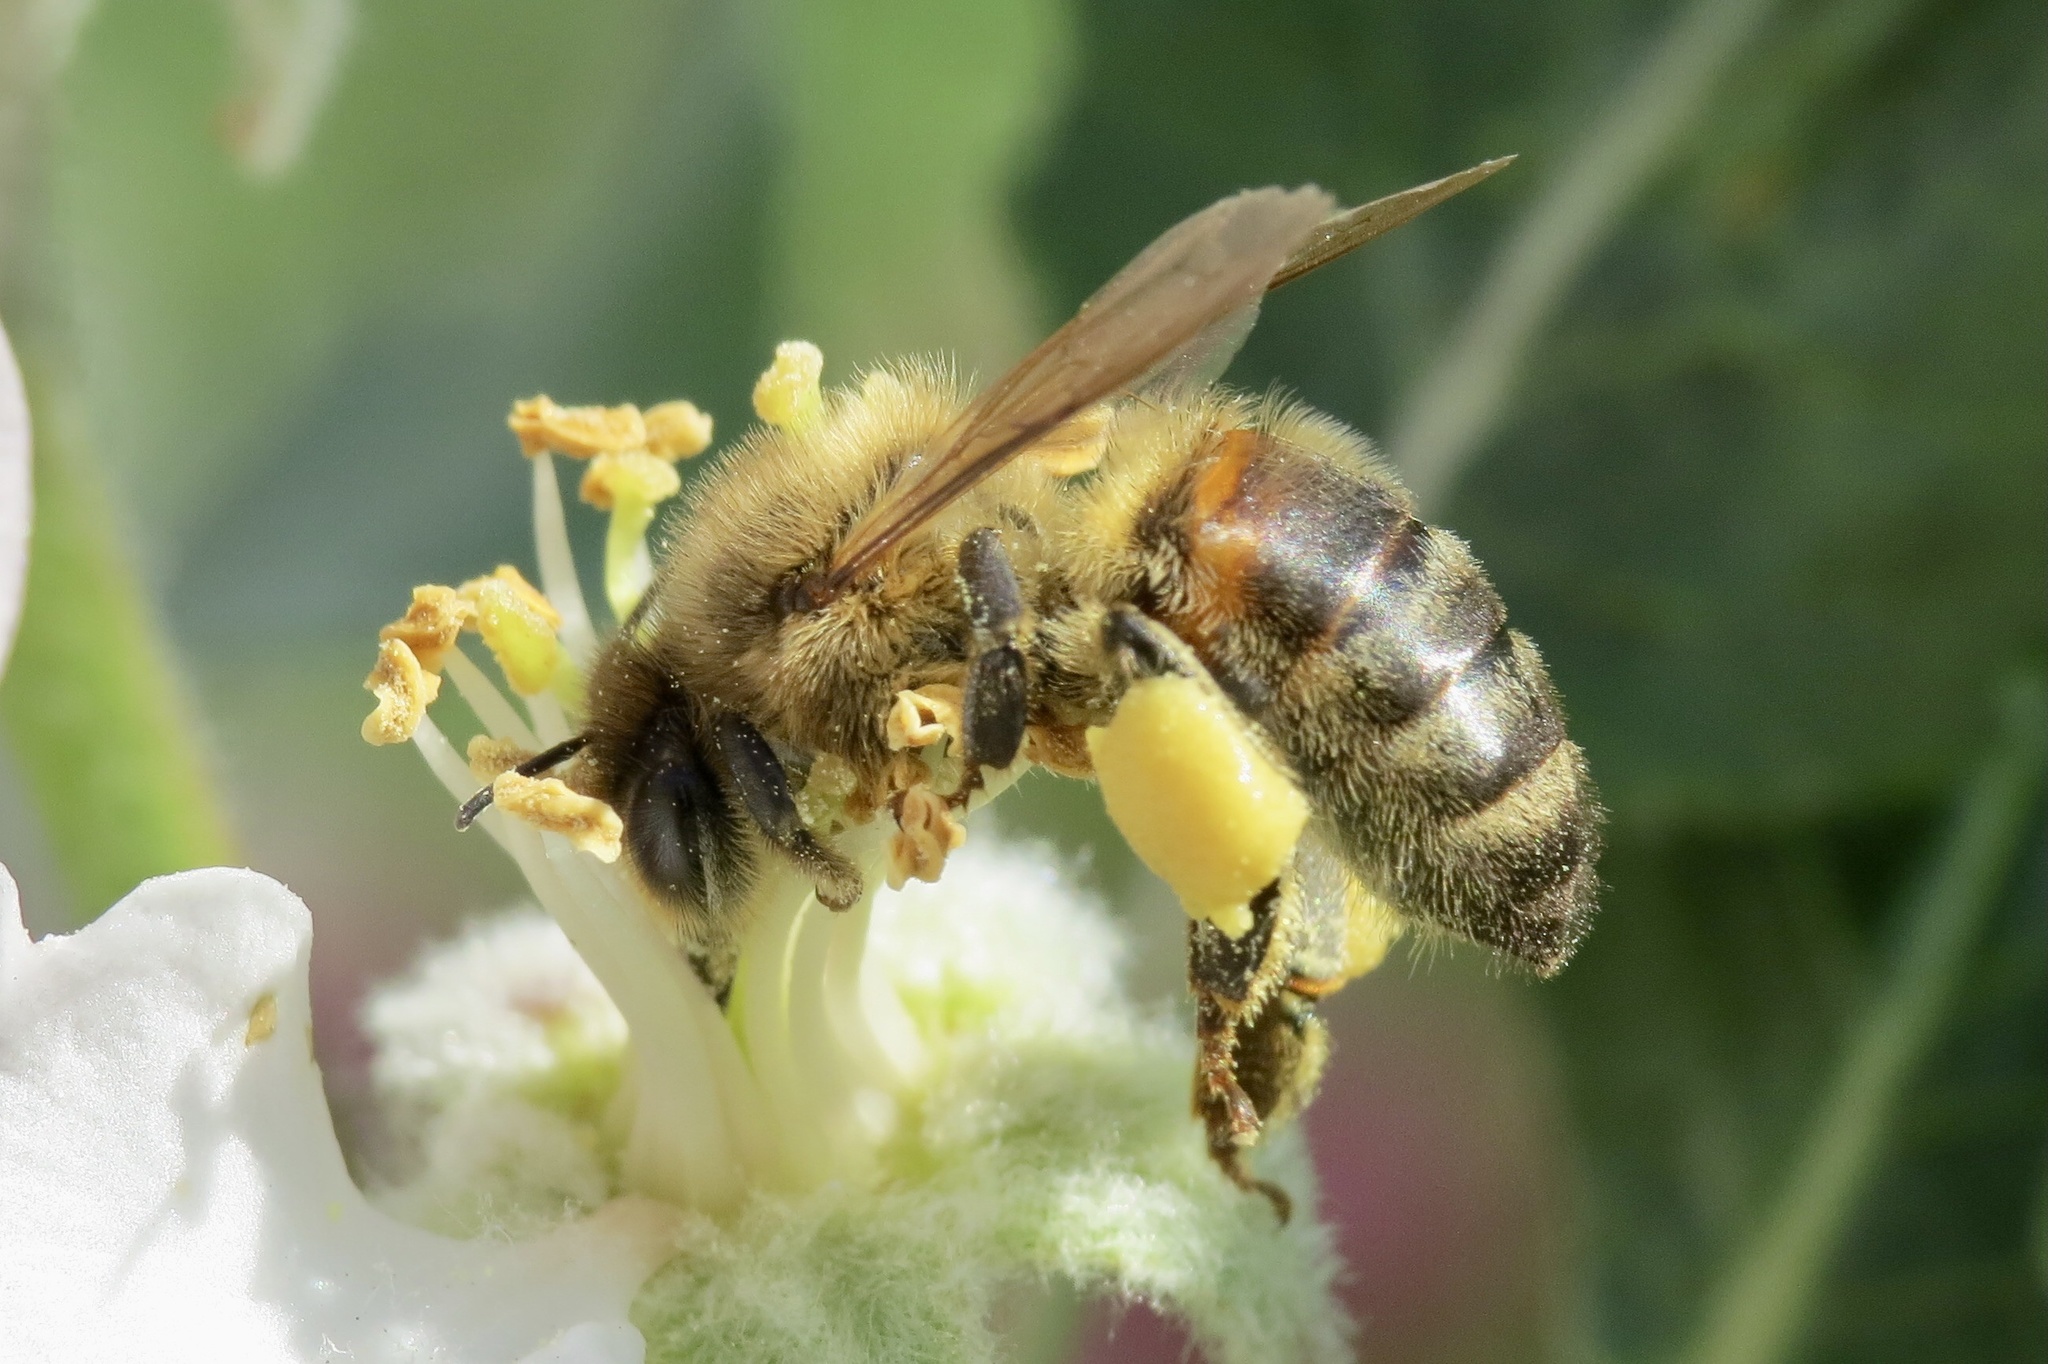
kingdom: Animalia
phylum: Arthropoda
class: Insecta
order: Hymenoptera
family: Apidae
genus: Apis
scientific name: Apis mellifera
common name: Honey bee
